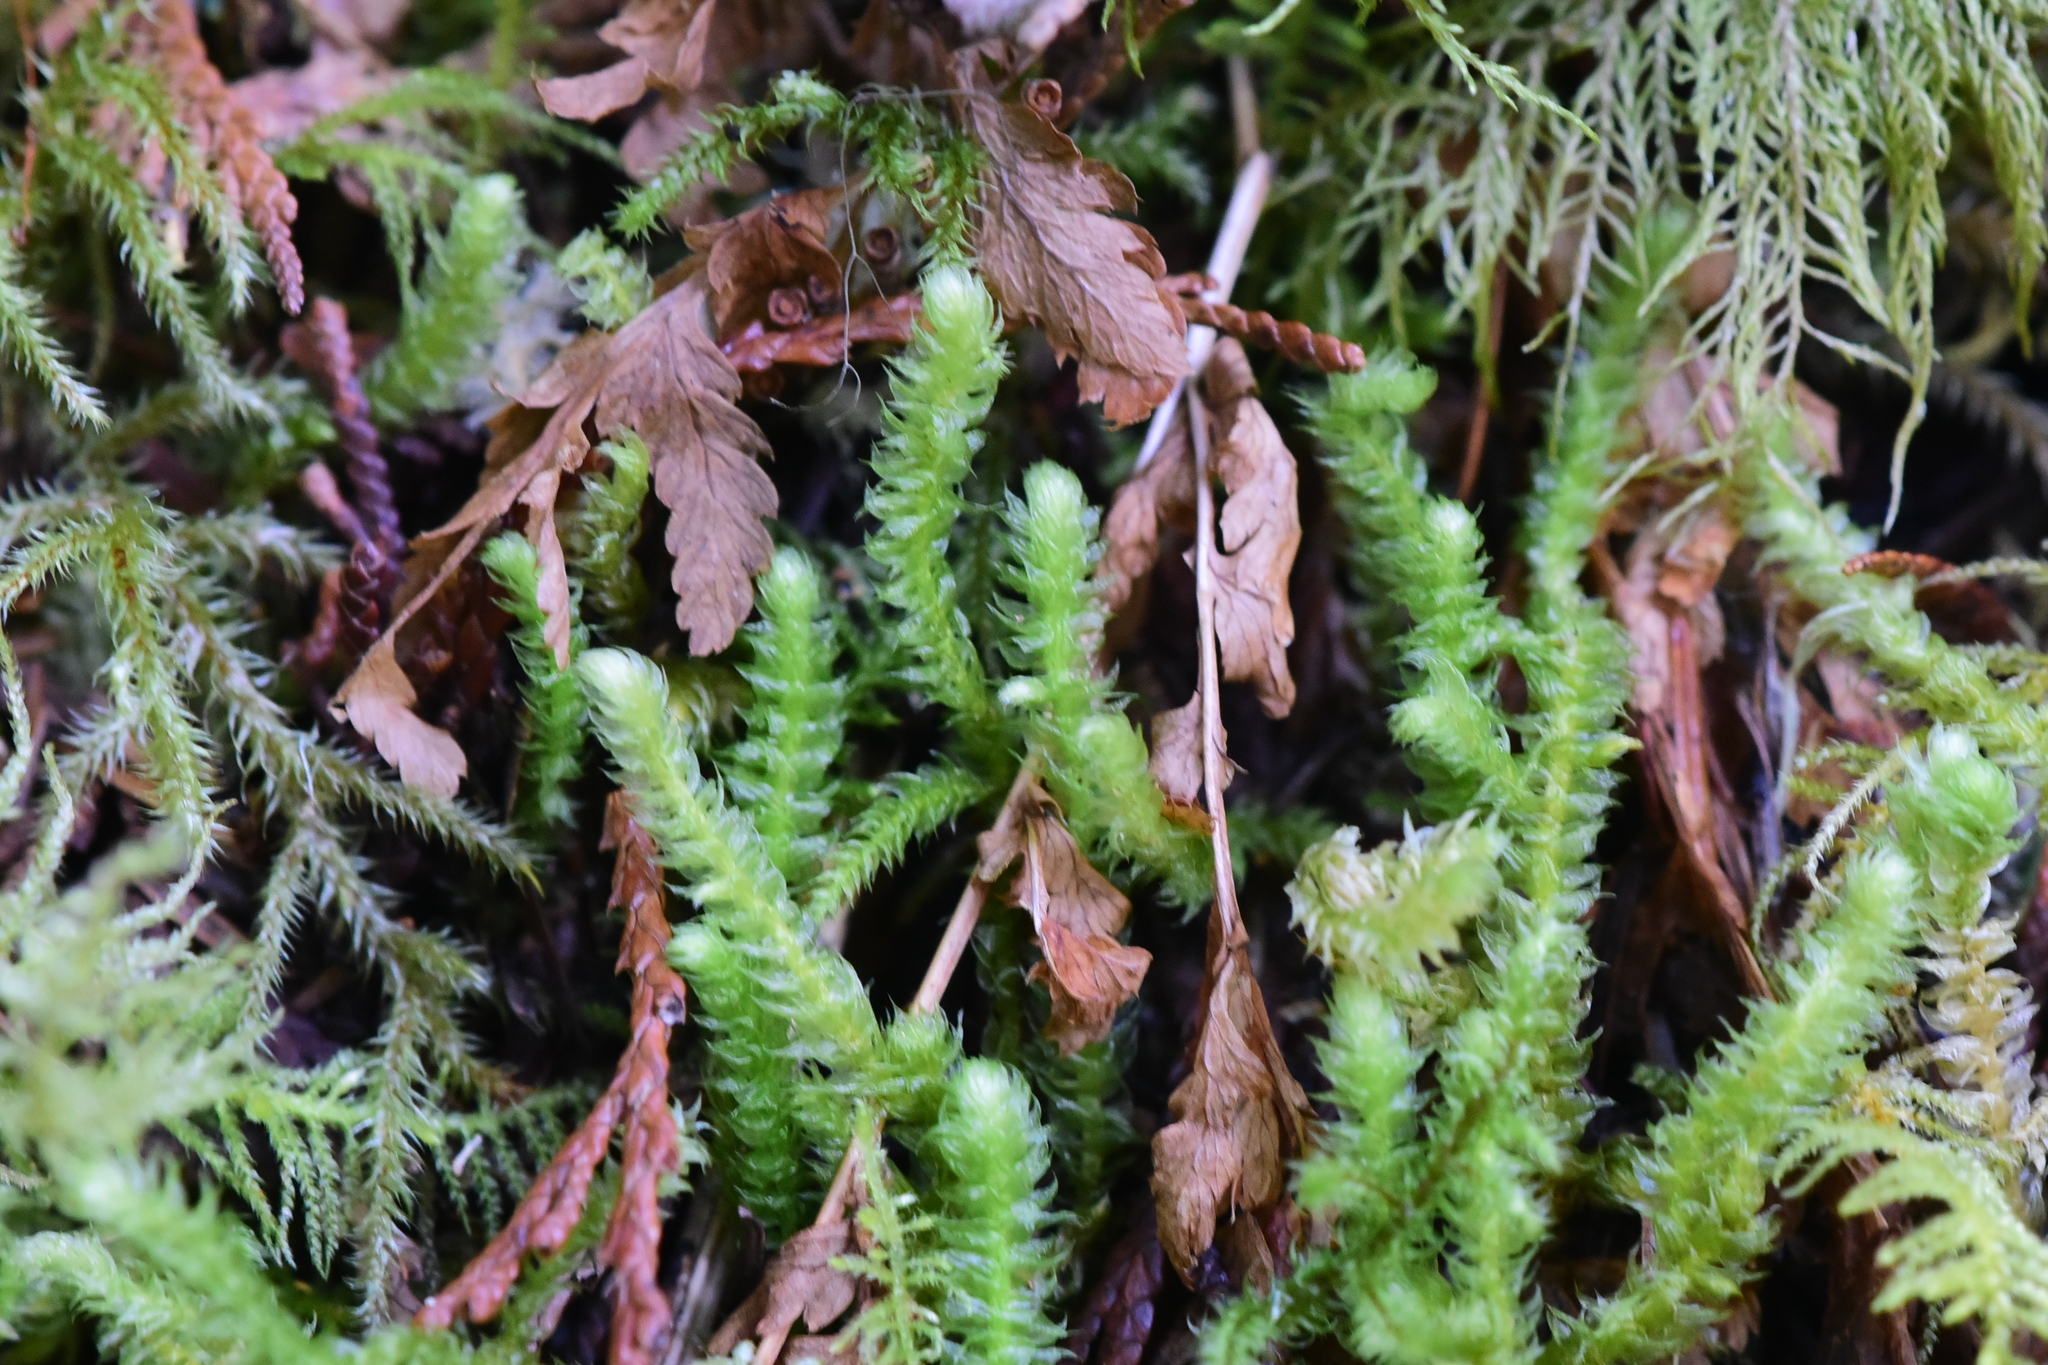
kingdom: Plantae
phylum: Bryophyta
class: Bryopsida
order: Hypnales
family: Plagiotheciaceae
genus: Plagiothecium
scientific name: Plagiothecium undulatum
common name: Waved silk-moss
